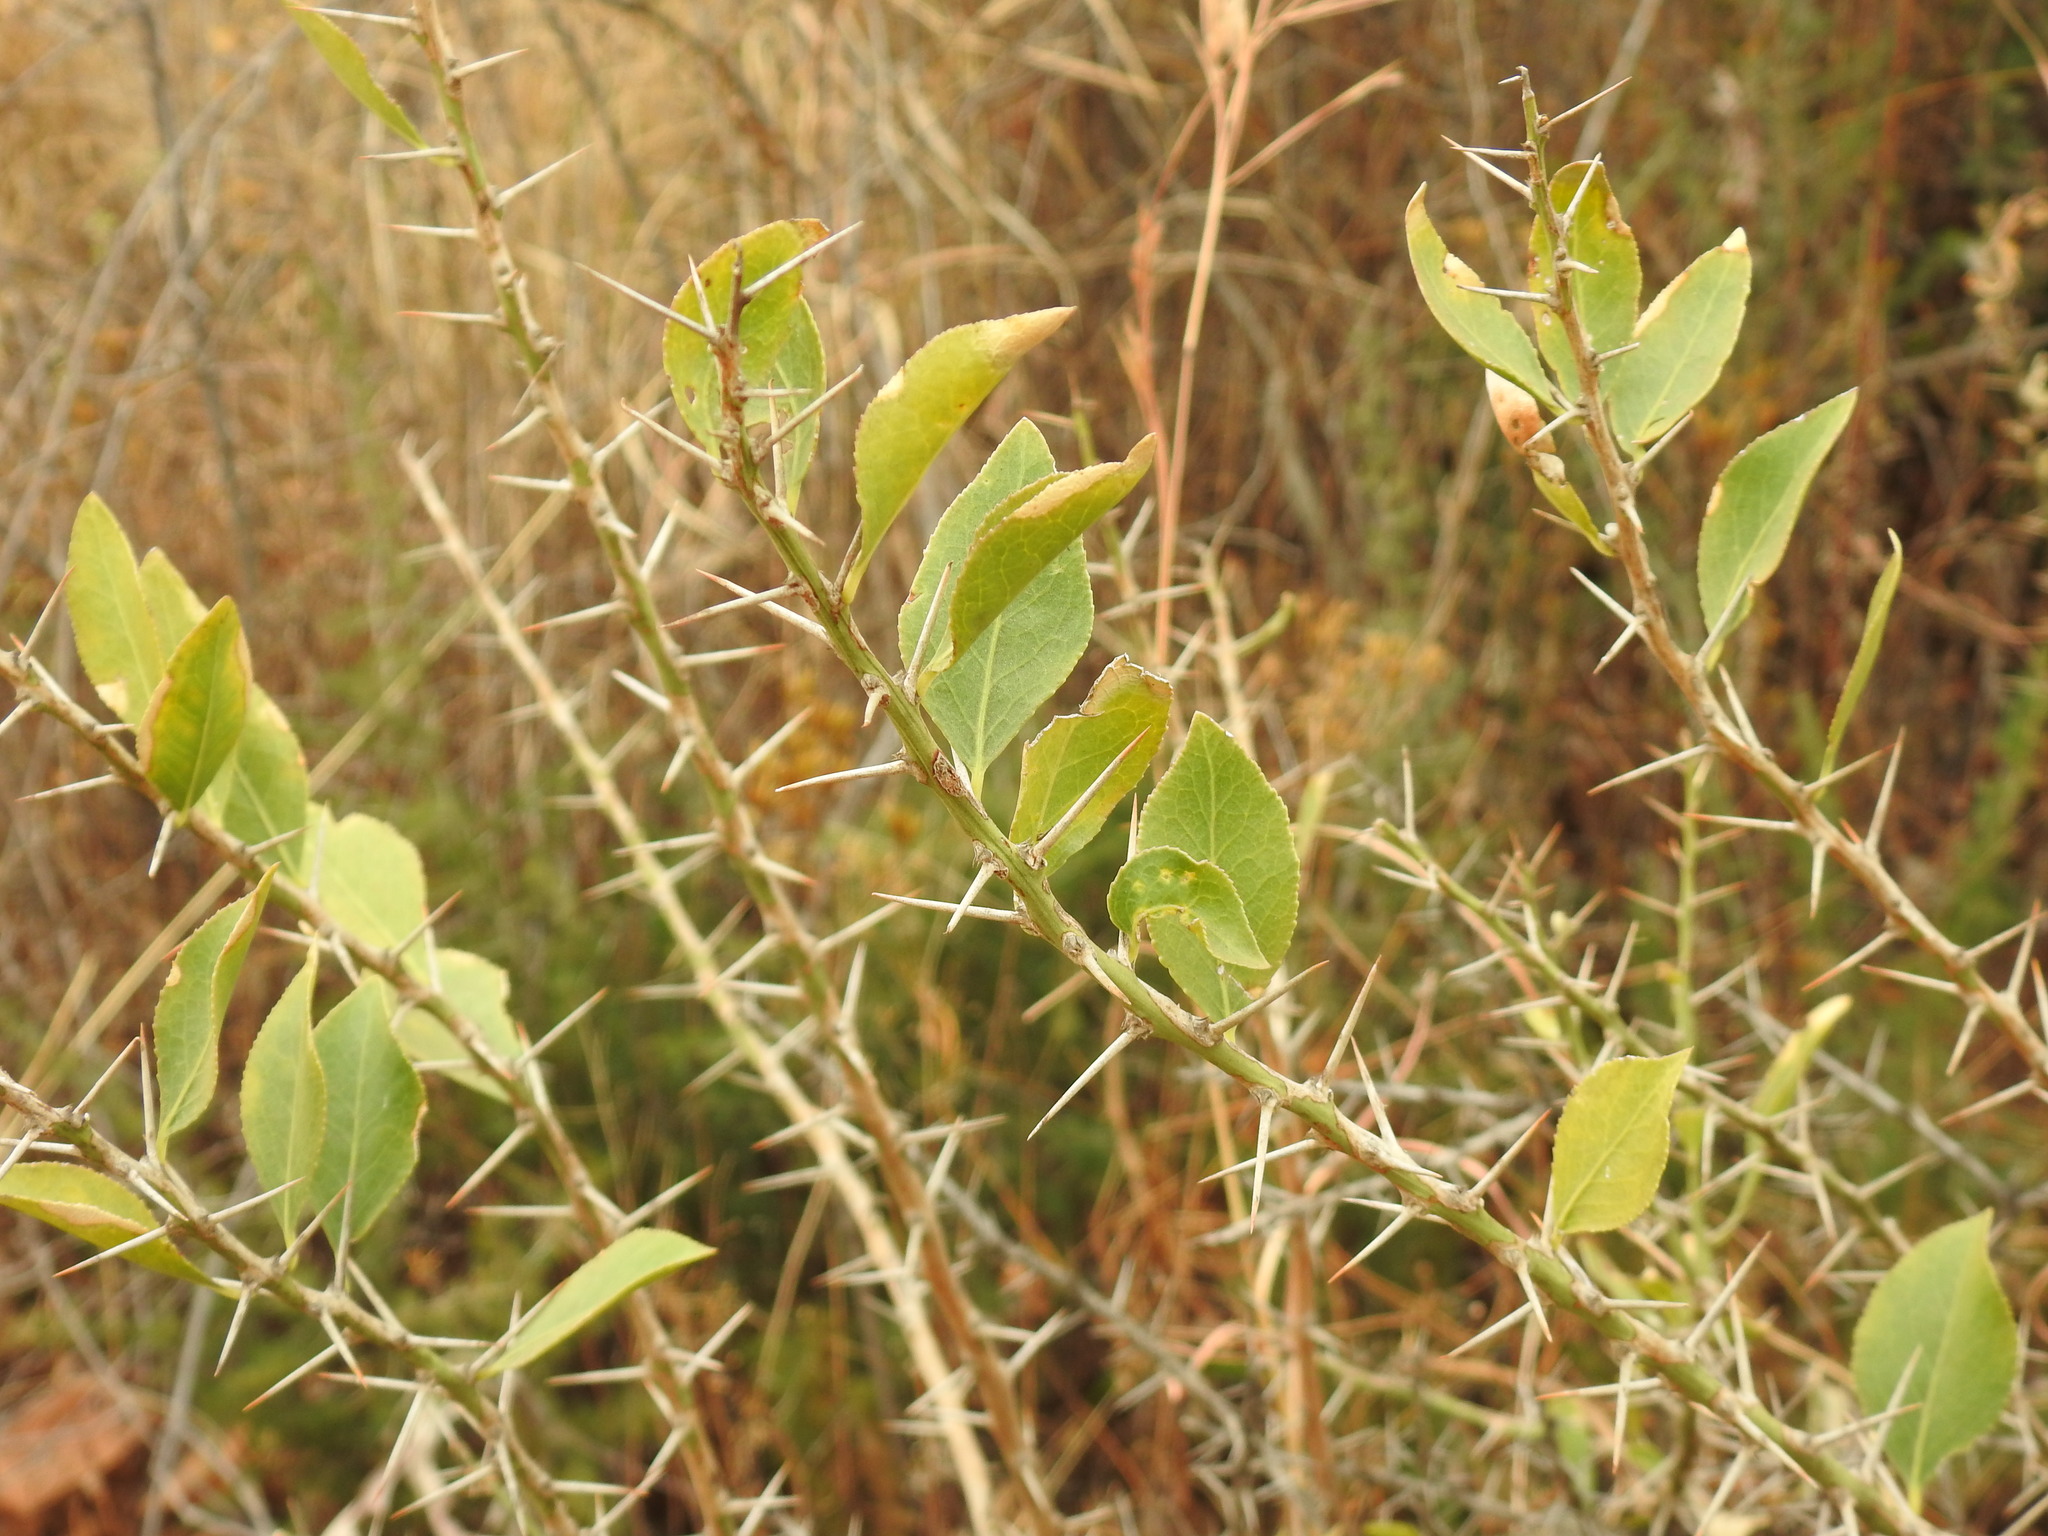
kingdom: Plantae
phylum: Tracheophyta
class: Magnoliopsida
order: Celastrales
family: Celastraceae
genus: Gymnosporia
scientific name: Gymnosporia buxifolia
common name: Common spike-thorn
